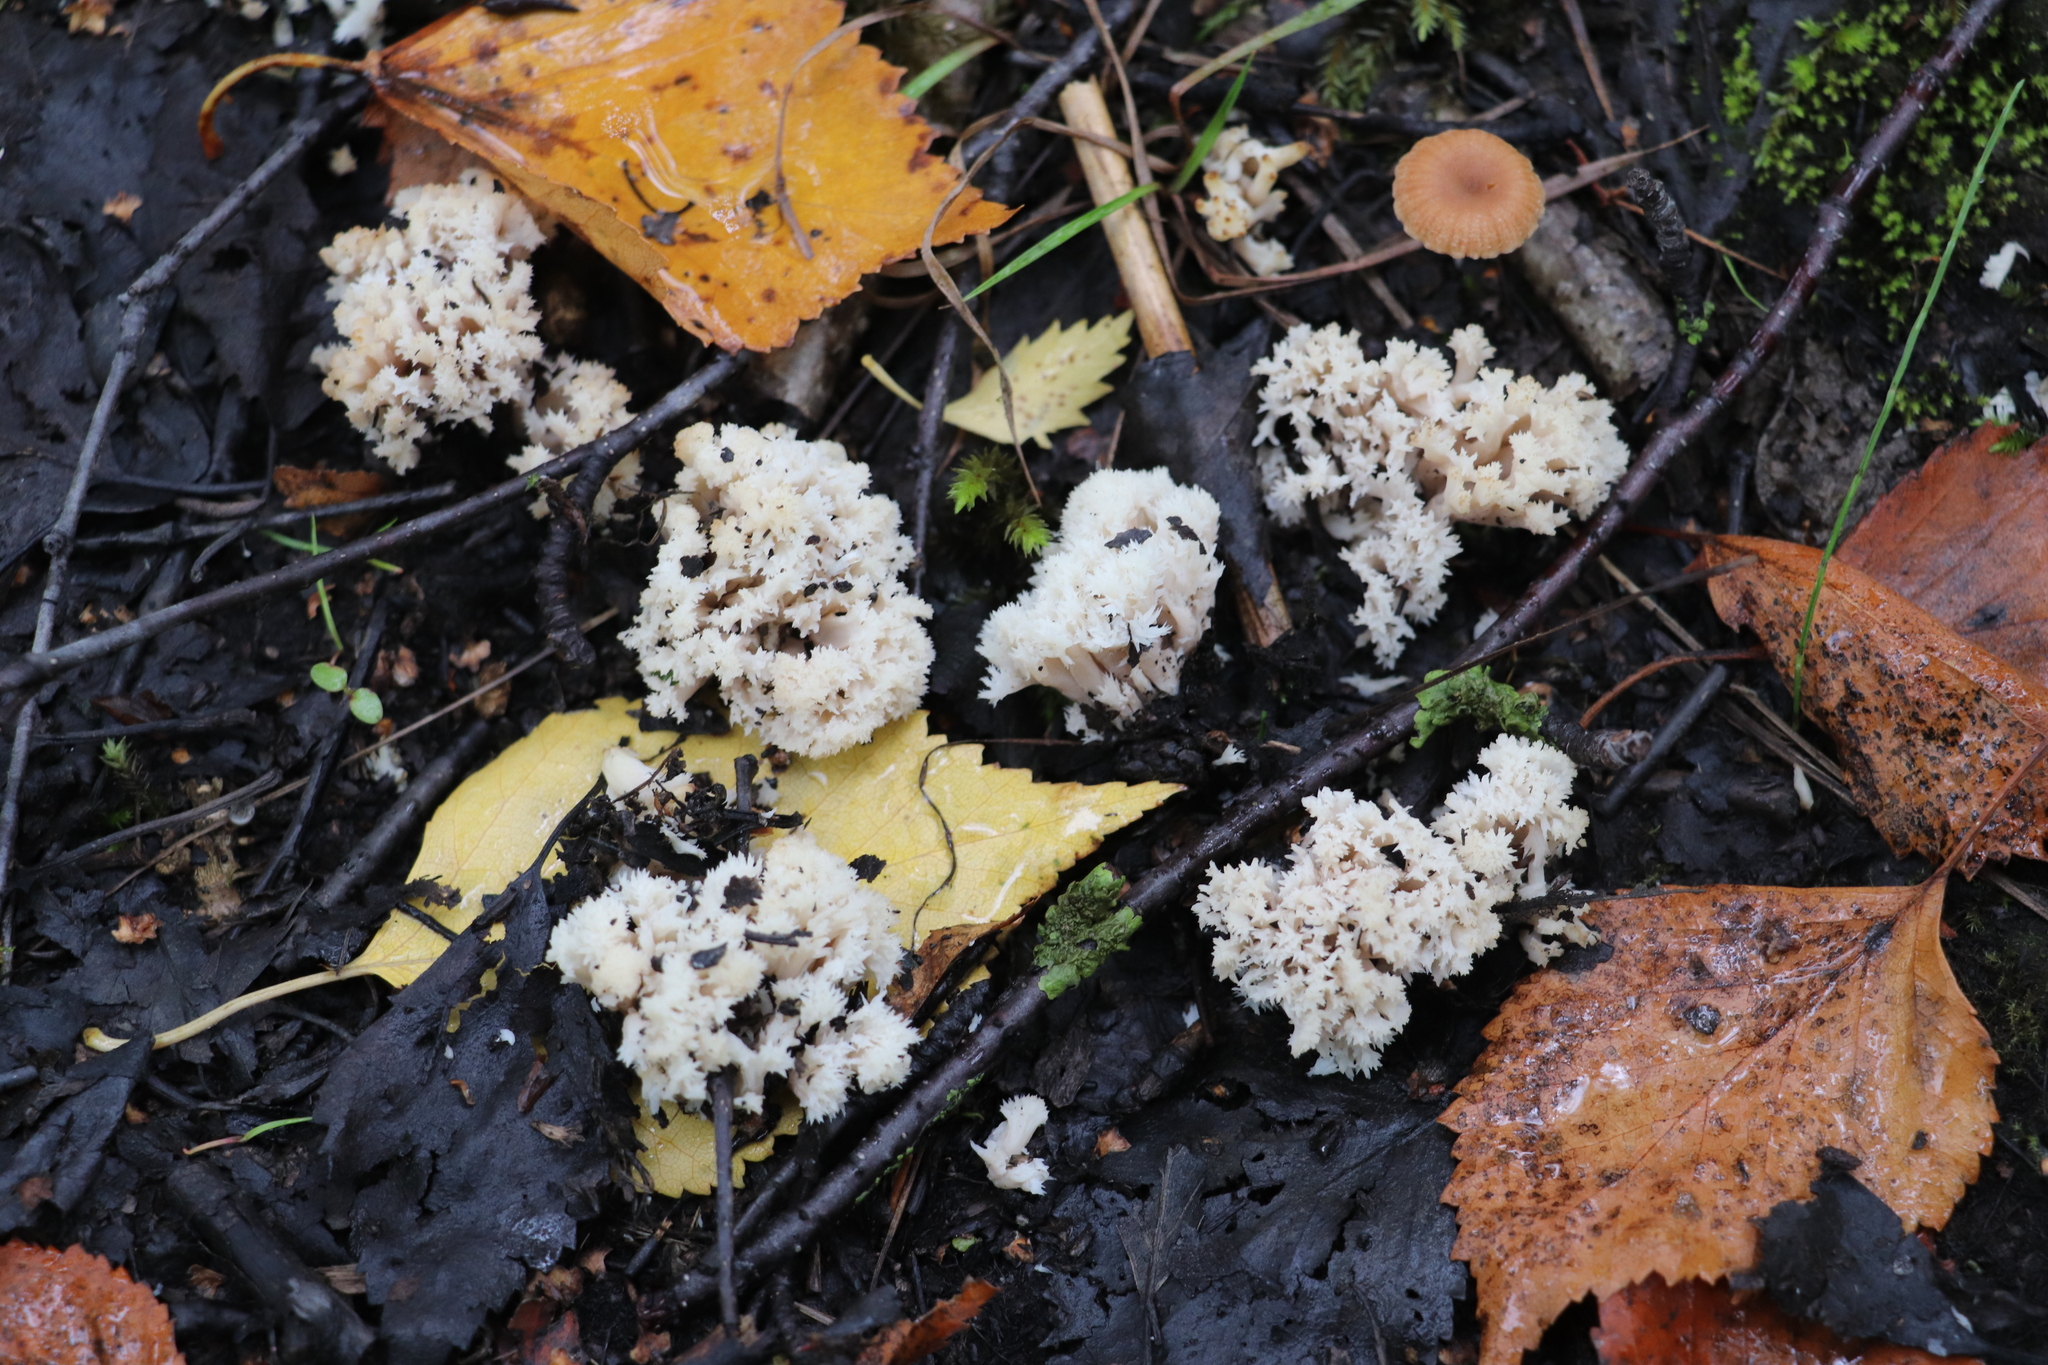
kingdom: Fungi
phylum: Basidiomycota
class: Agaricomycetes
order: Cantharellales
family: Hydnaceae
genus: Clavulina
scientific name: Clavulina coralloides
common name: Crested coral
